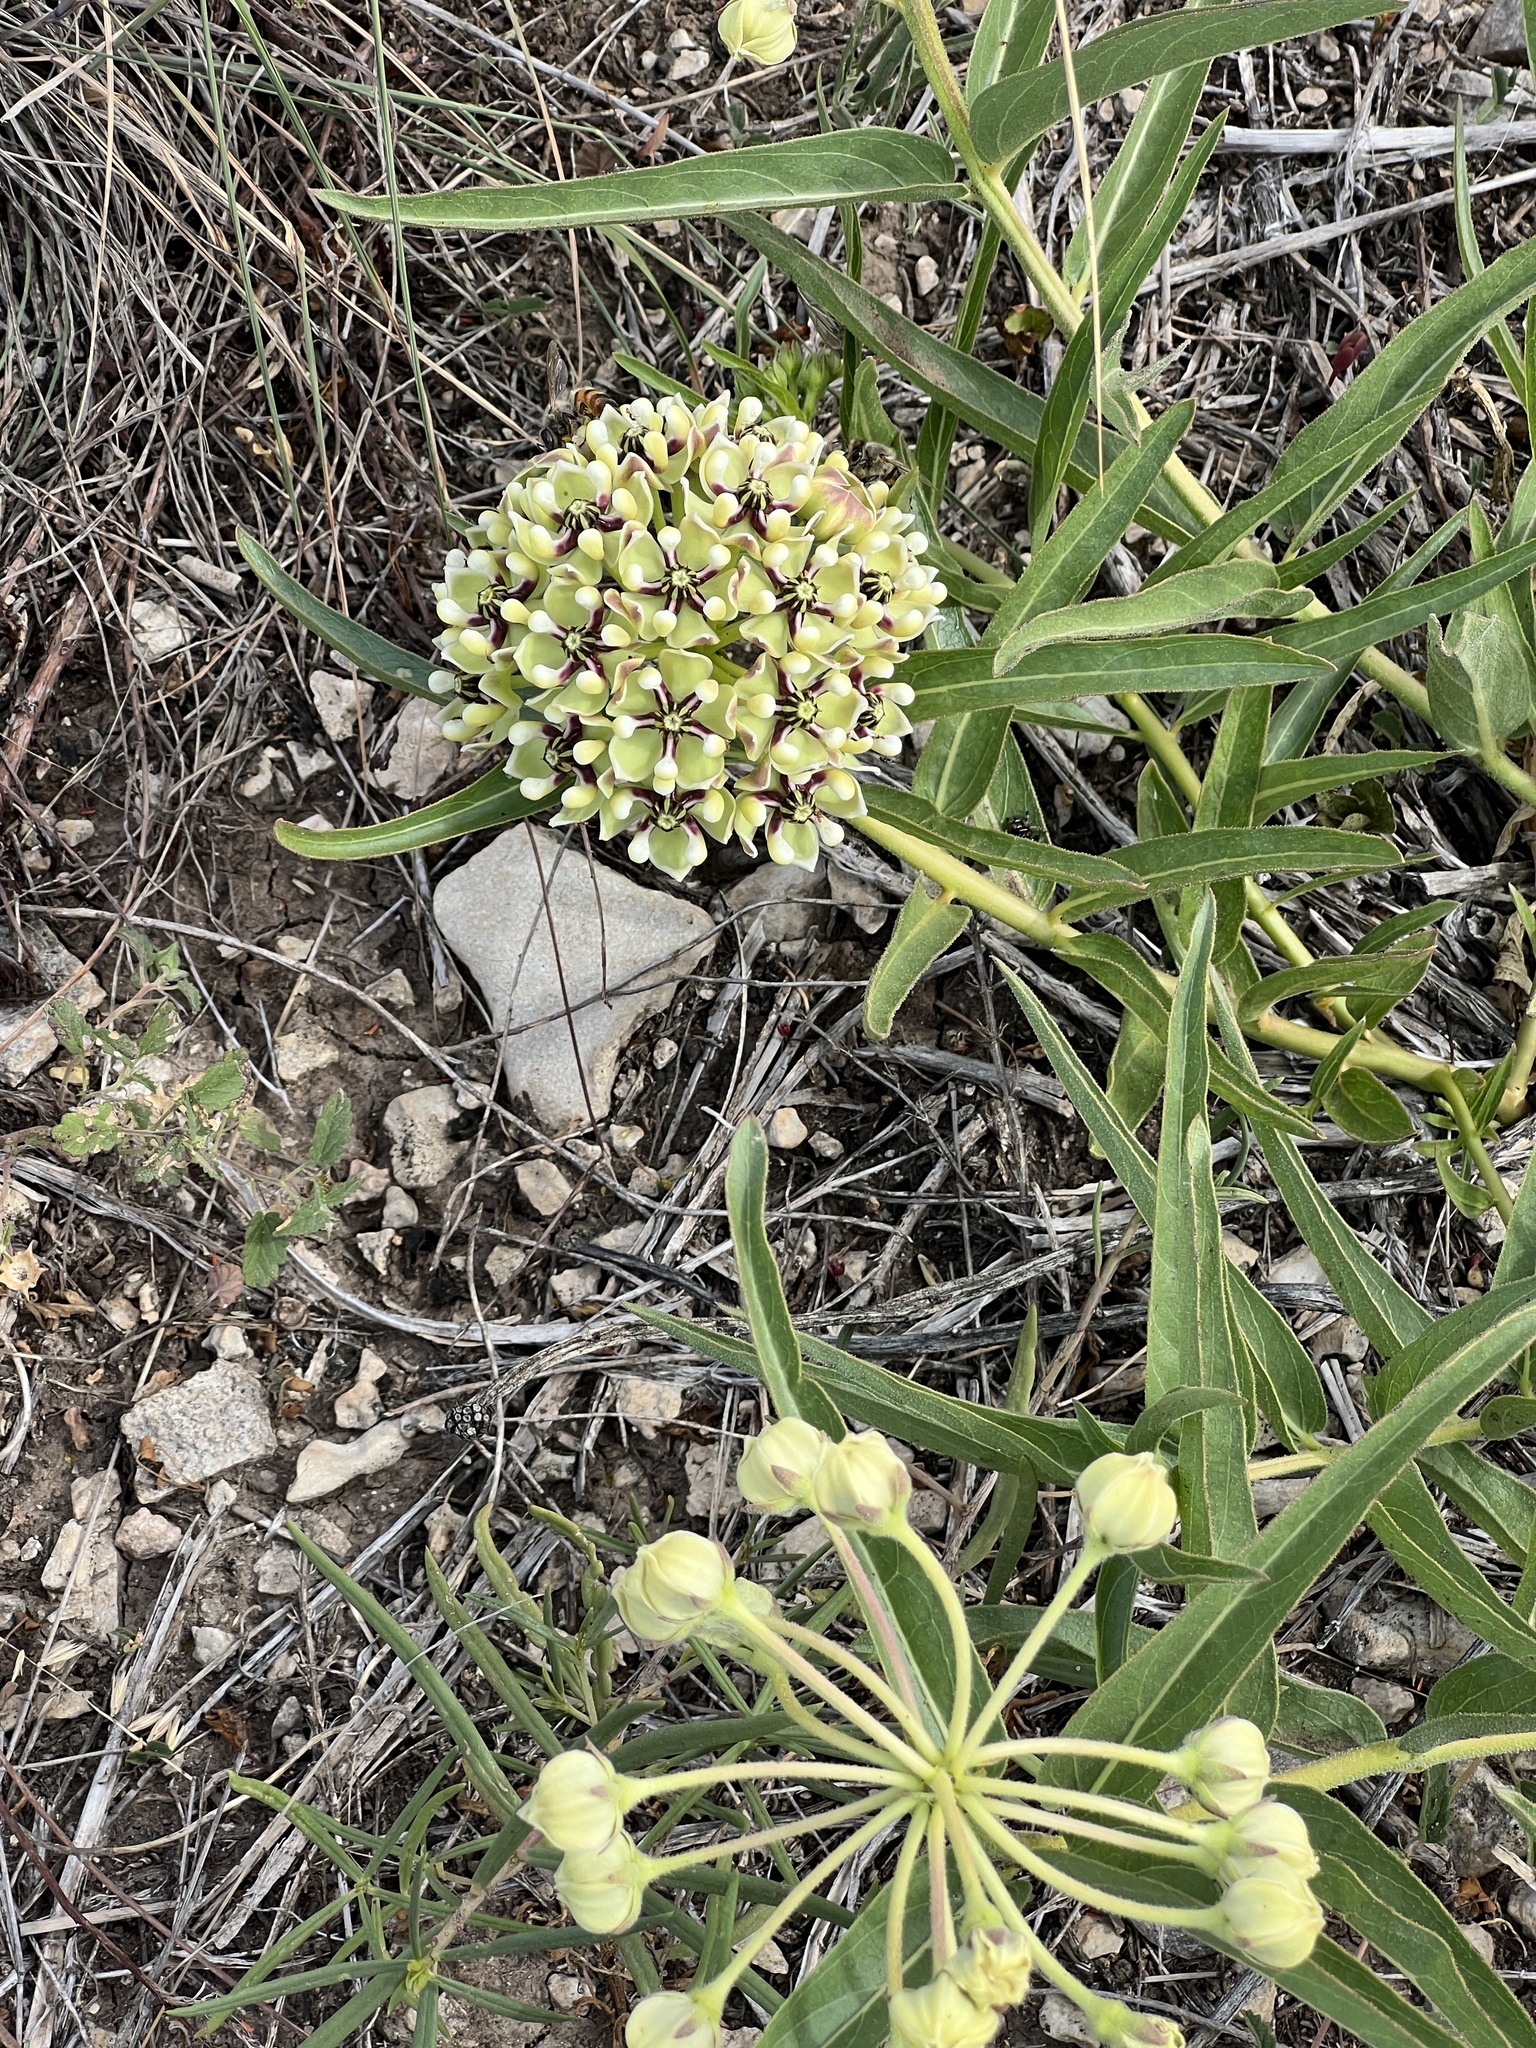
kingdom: Plantae
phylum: Tracheophyta
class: Magnoliopsida
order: Gentianales
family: Apocynaceae
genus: Asclepias
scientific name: Asclepias asperula
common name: Antelope horns
